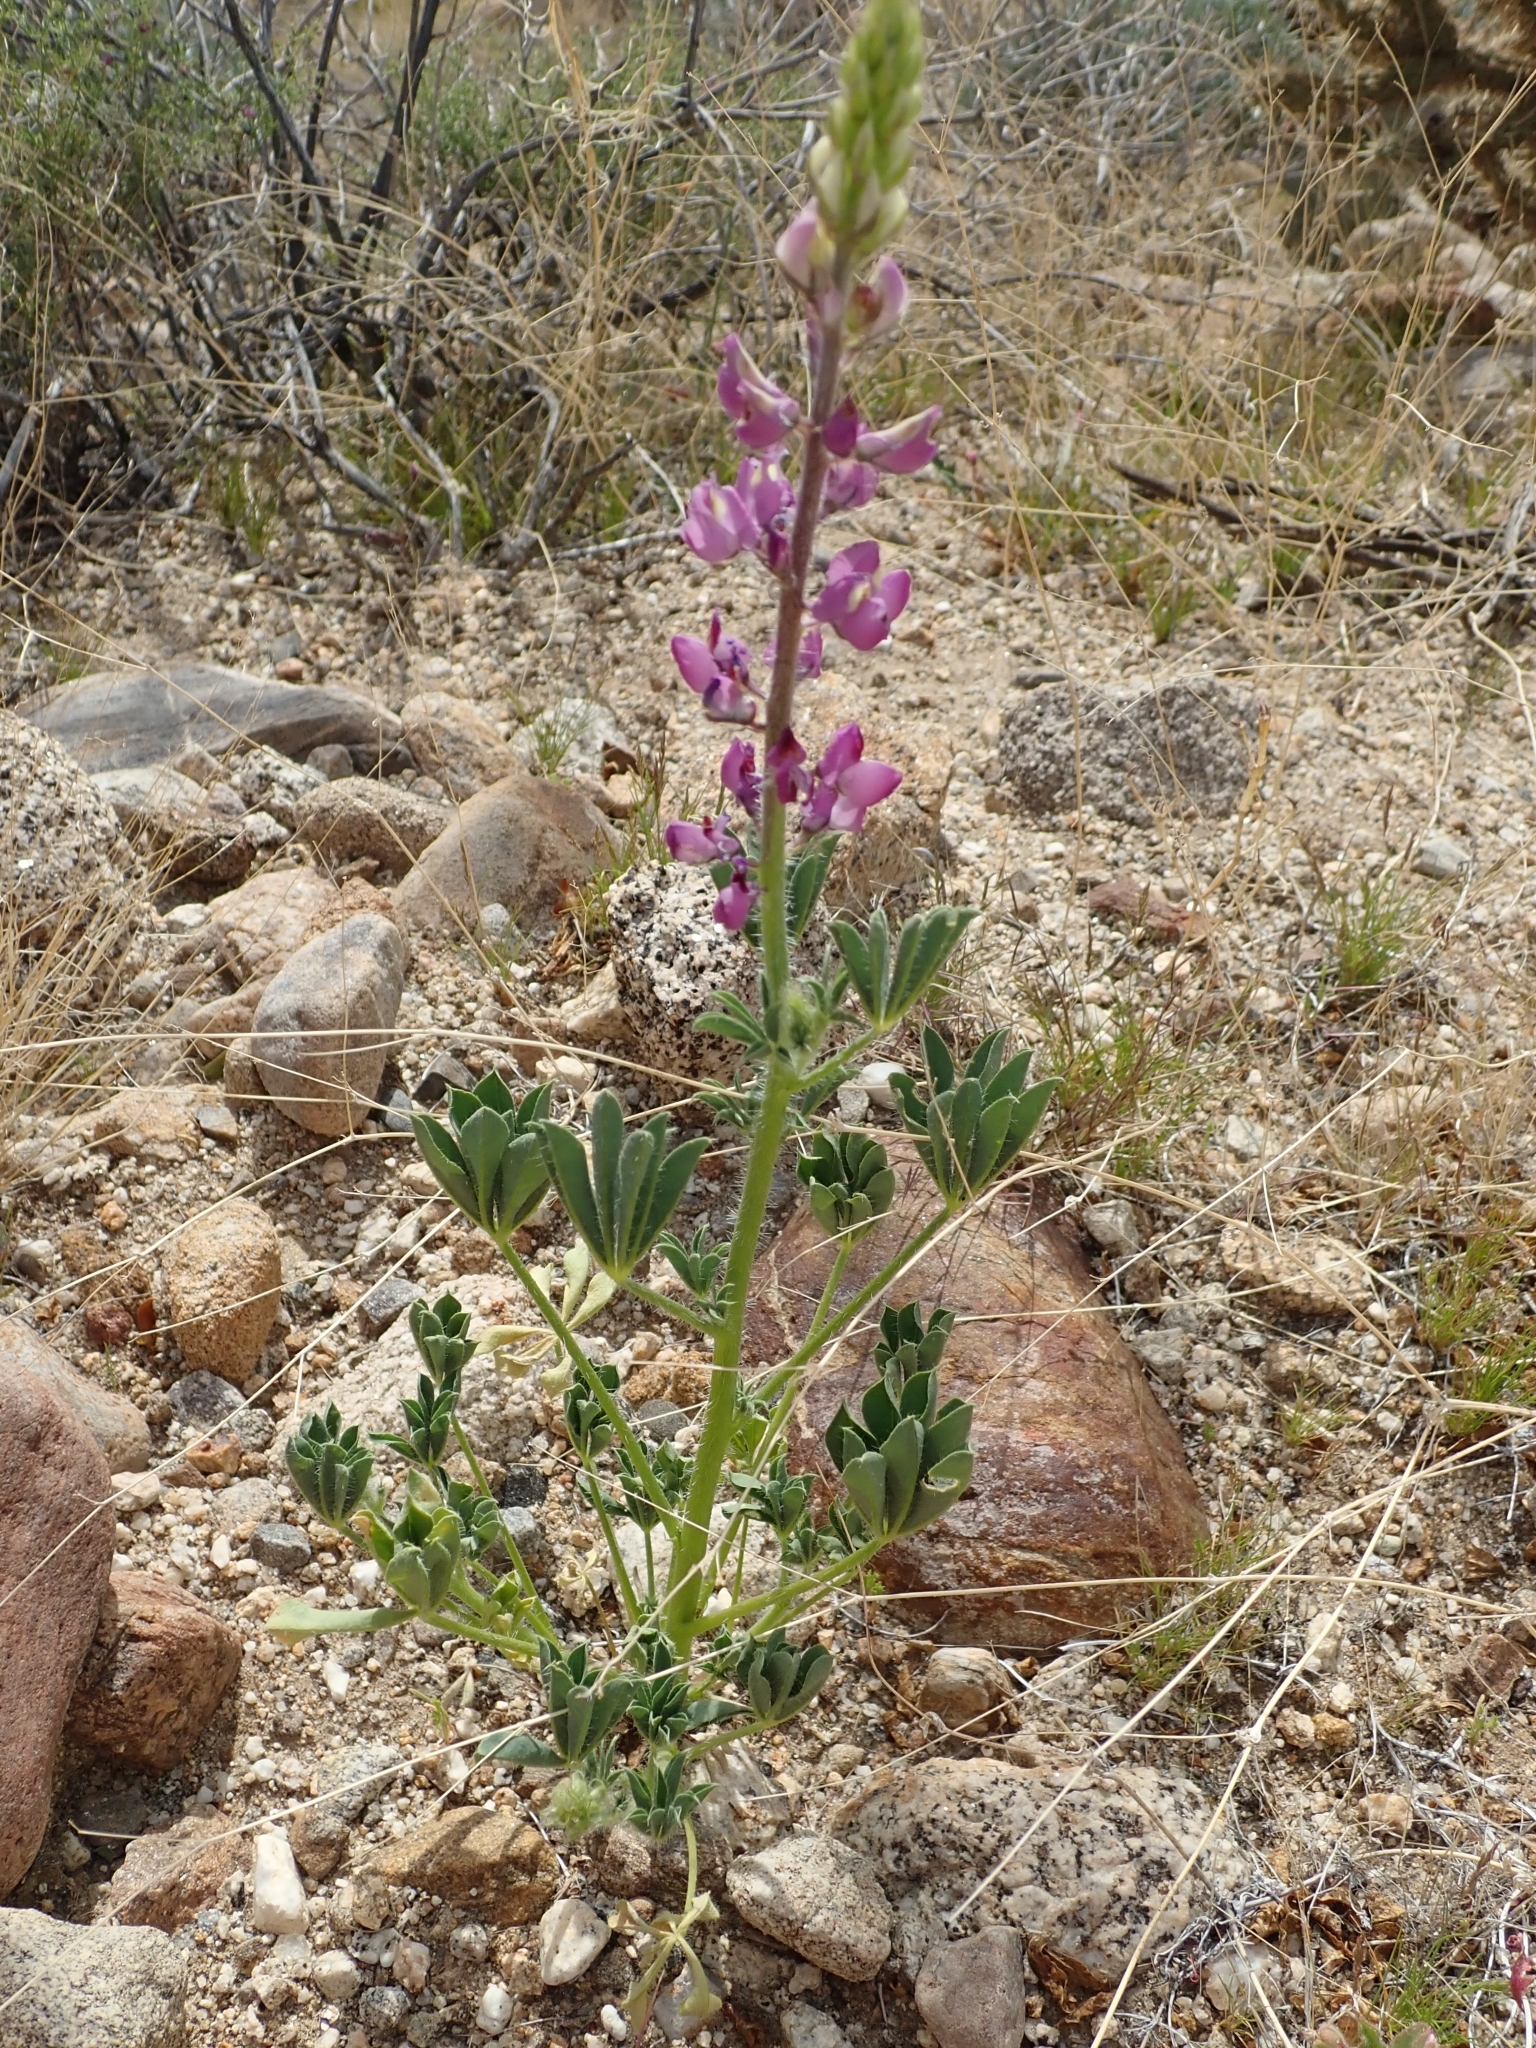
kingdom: Plantae
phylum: Tracheophyta
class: Magnoliopsida
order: Fabales
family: Fabaceae
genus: Lupinus
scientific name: Lupinus arizonicus
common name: Arizona lupine
